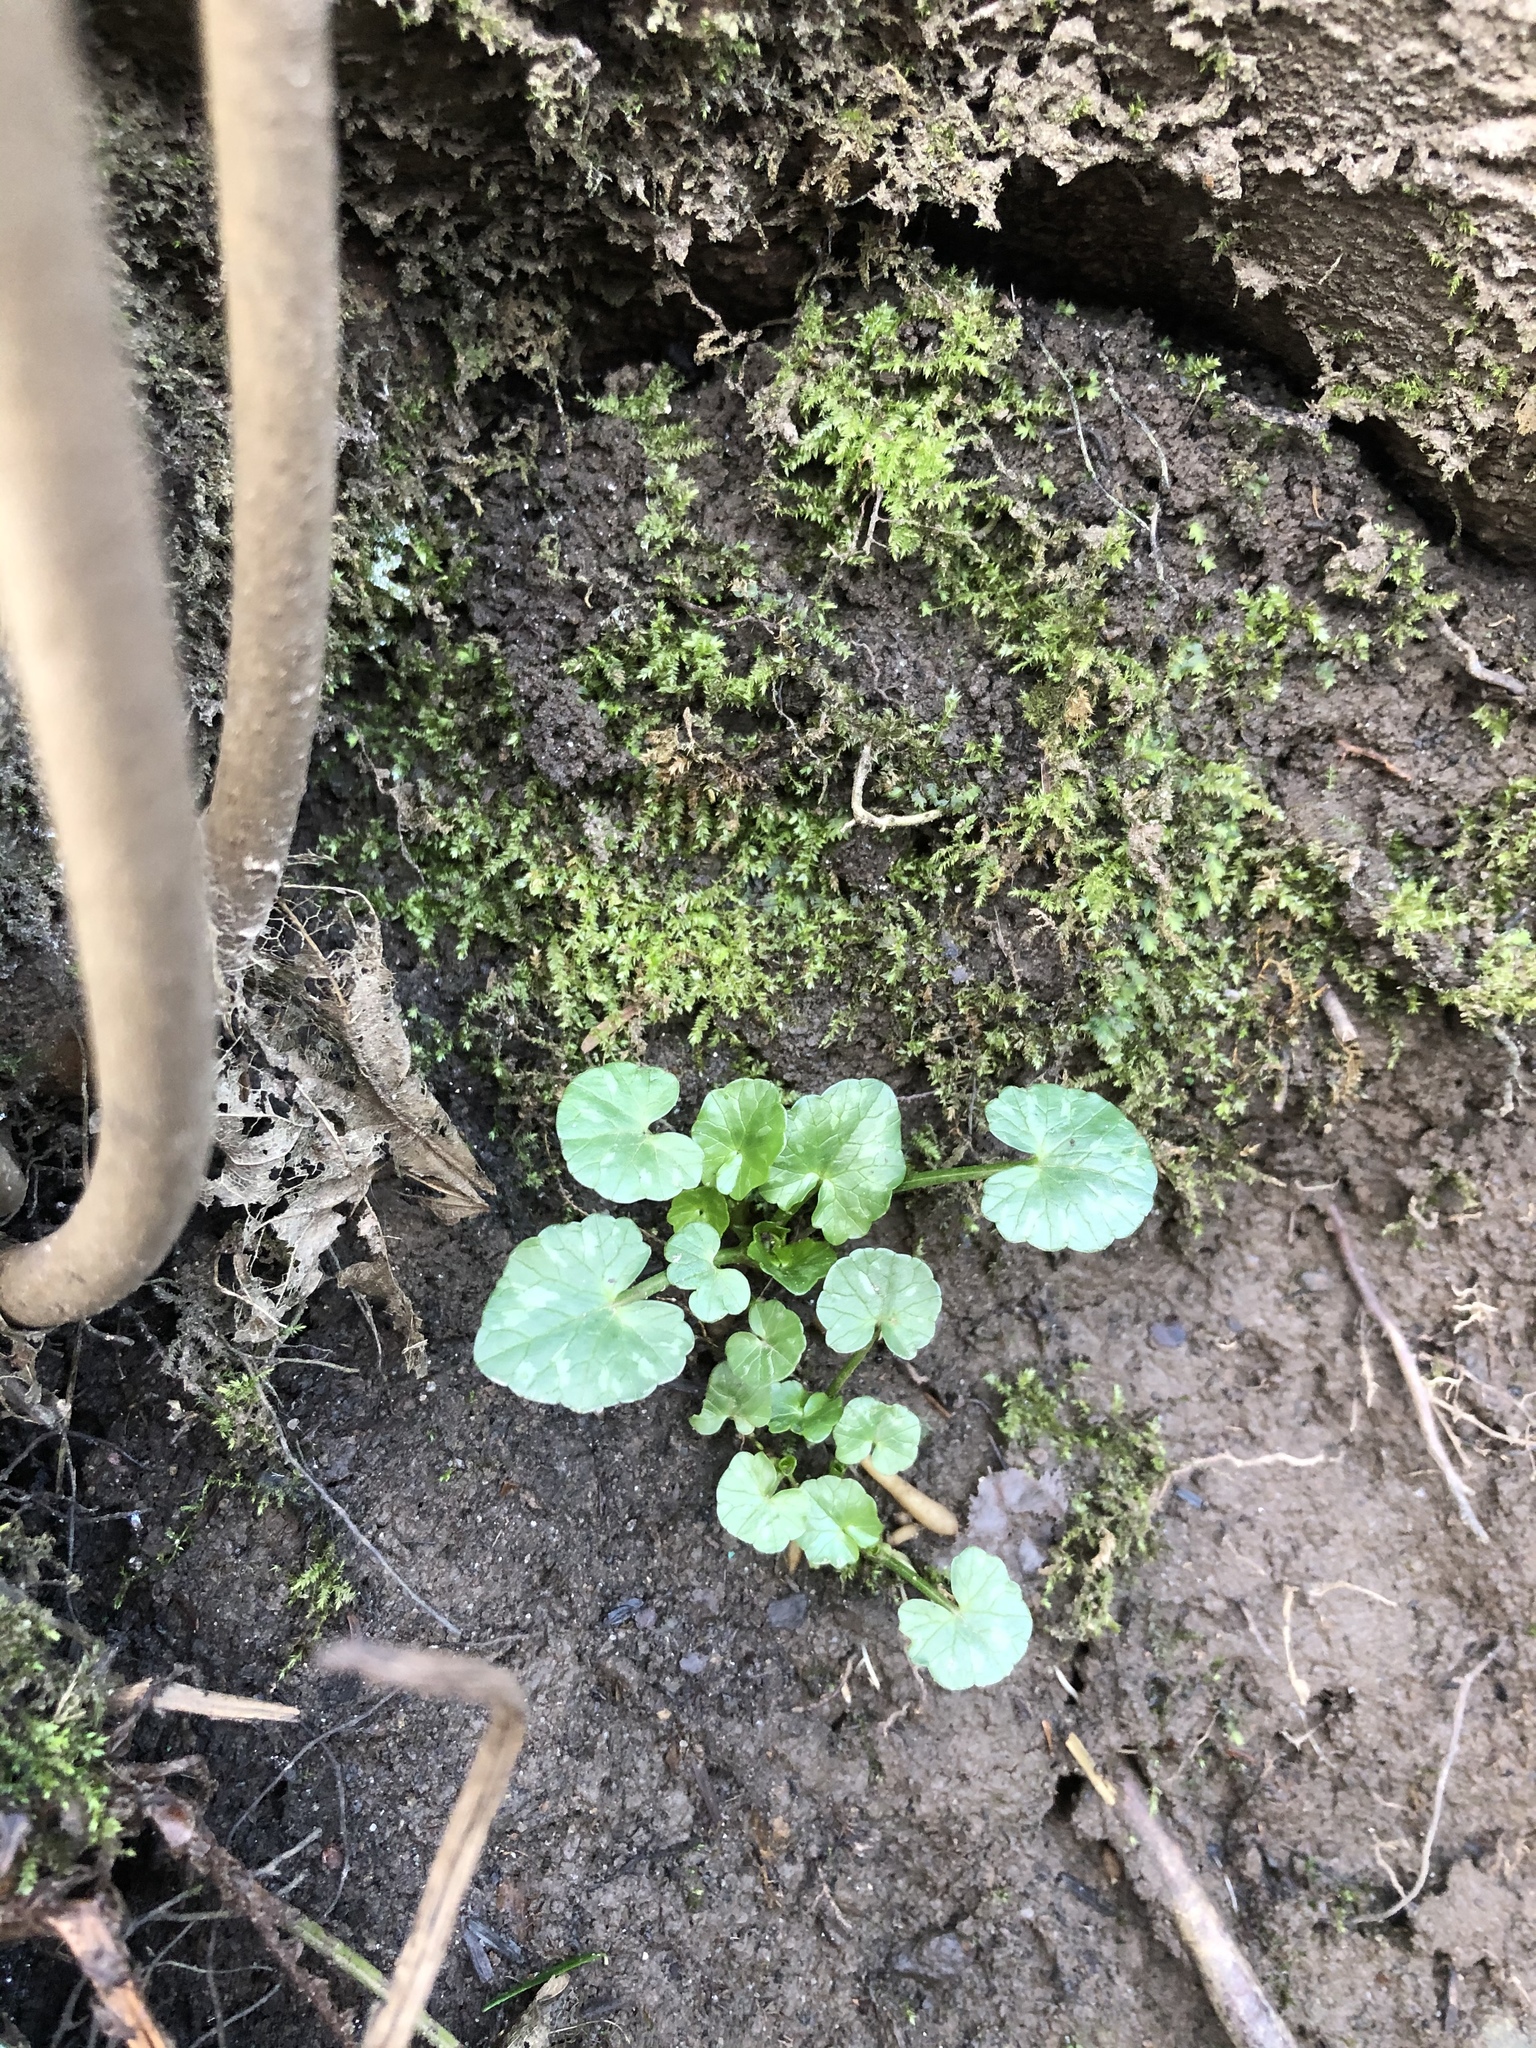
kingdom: Plantae
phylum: Tracheophyta
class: Magnoliopsida
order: Ranunculales
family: Ranunculaceae
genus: Ficaria
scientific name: Ficaria verna
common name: Lesser celandine
